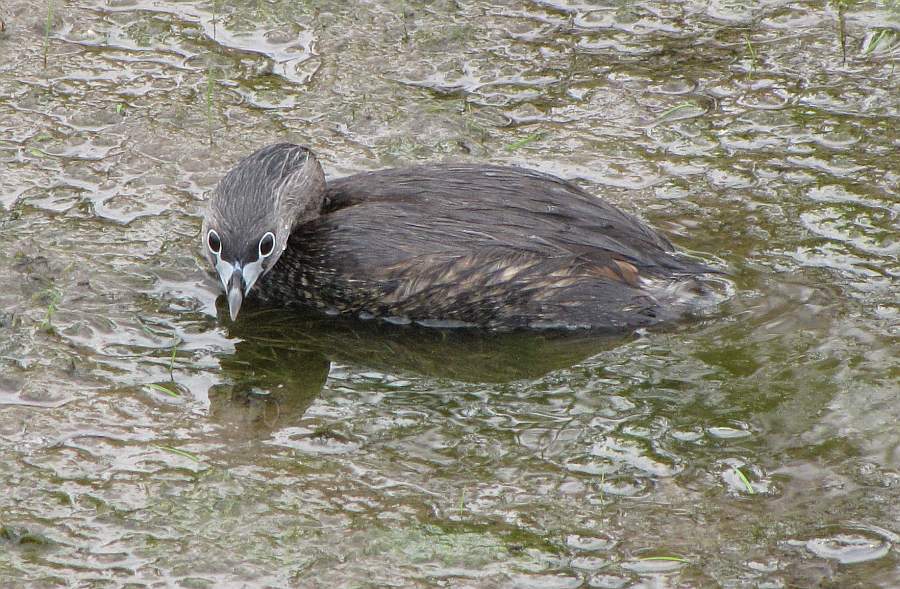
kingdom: Animalia
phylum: Chordata
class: Aves
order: Podicipediformes
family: Podicipedidae
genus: Podilymbus
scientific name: Podilymbus podiceps
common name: Pied-billed grebe
